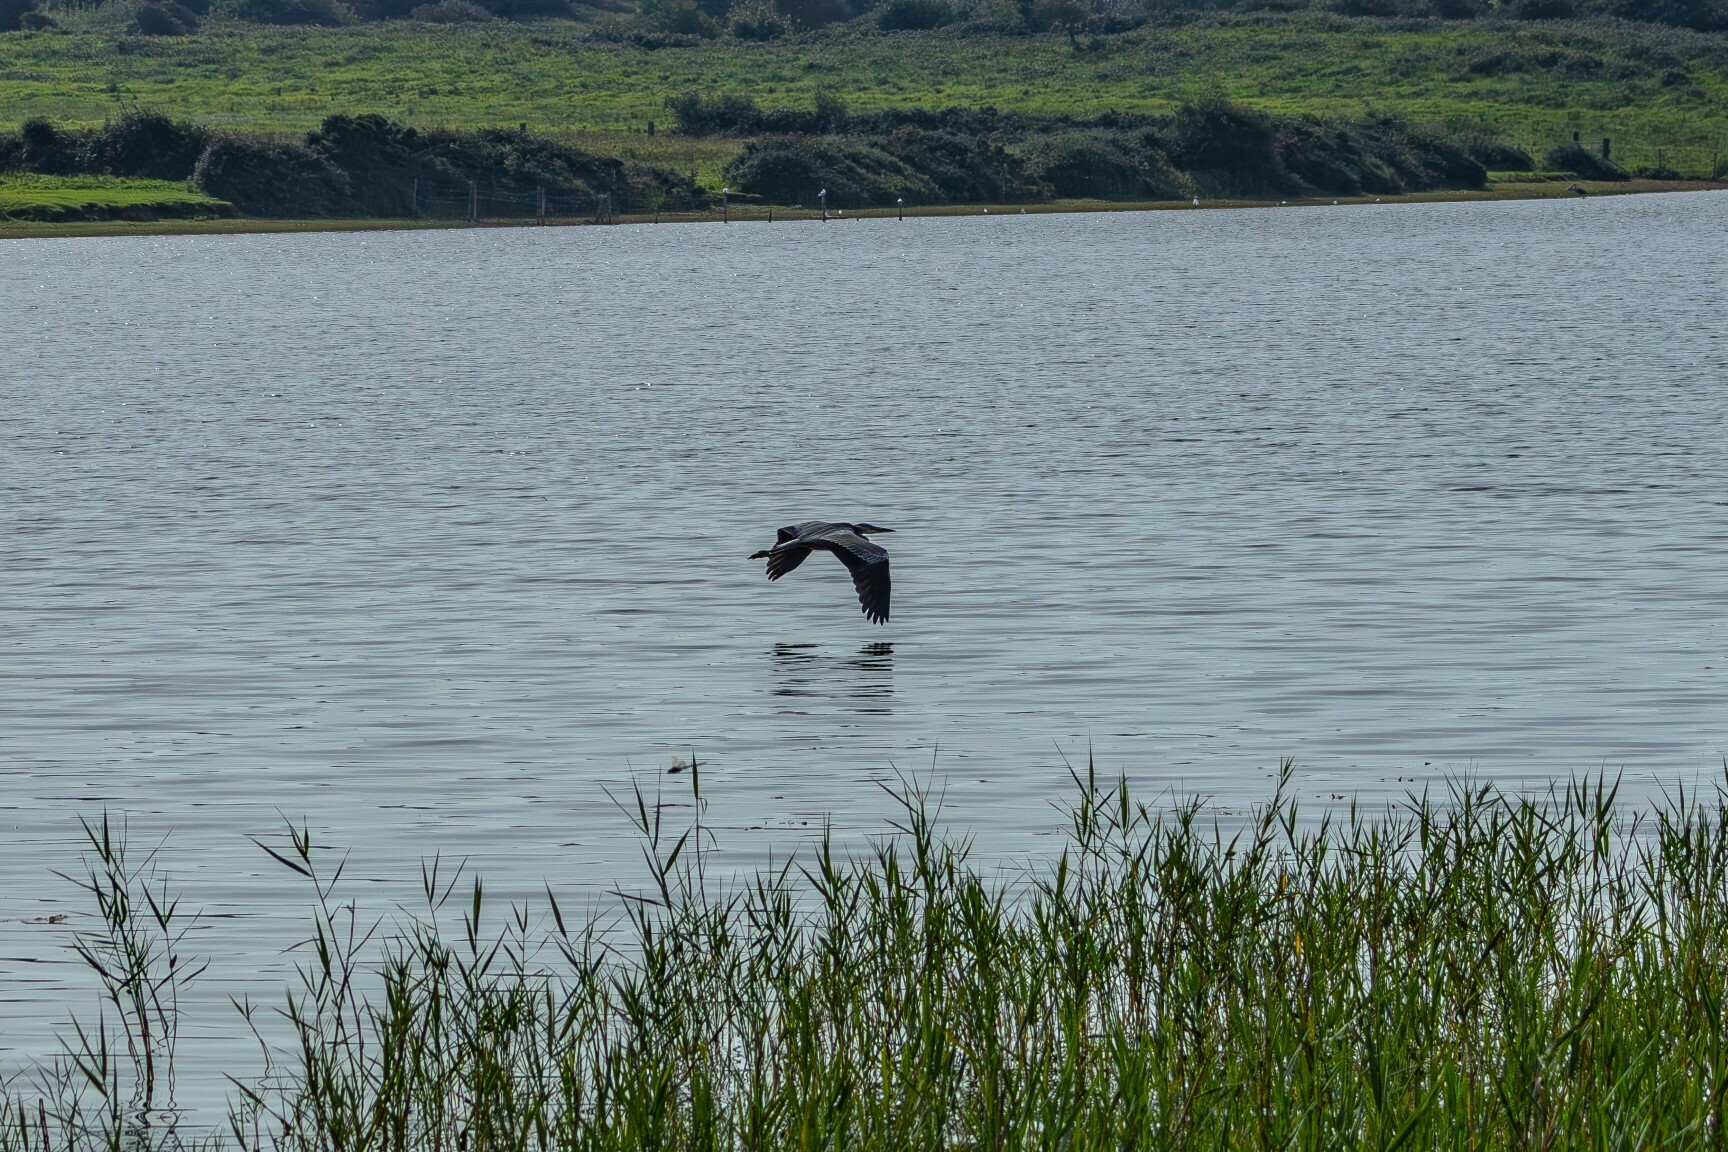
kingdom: Animalia
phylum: Chordata
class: Aves
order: Pelecaniformes
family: Ardeidae
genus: Ardea
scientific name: Ardea cinerea
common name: Grey heron
